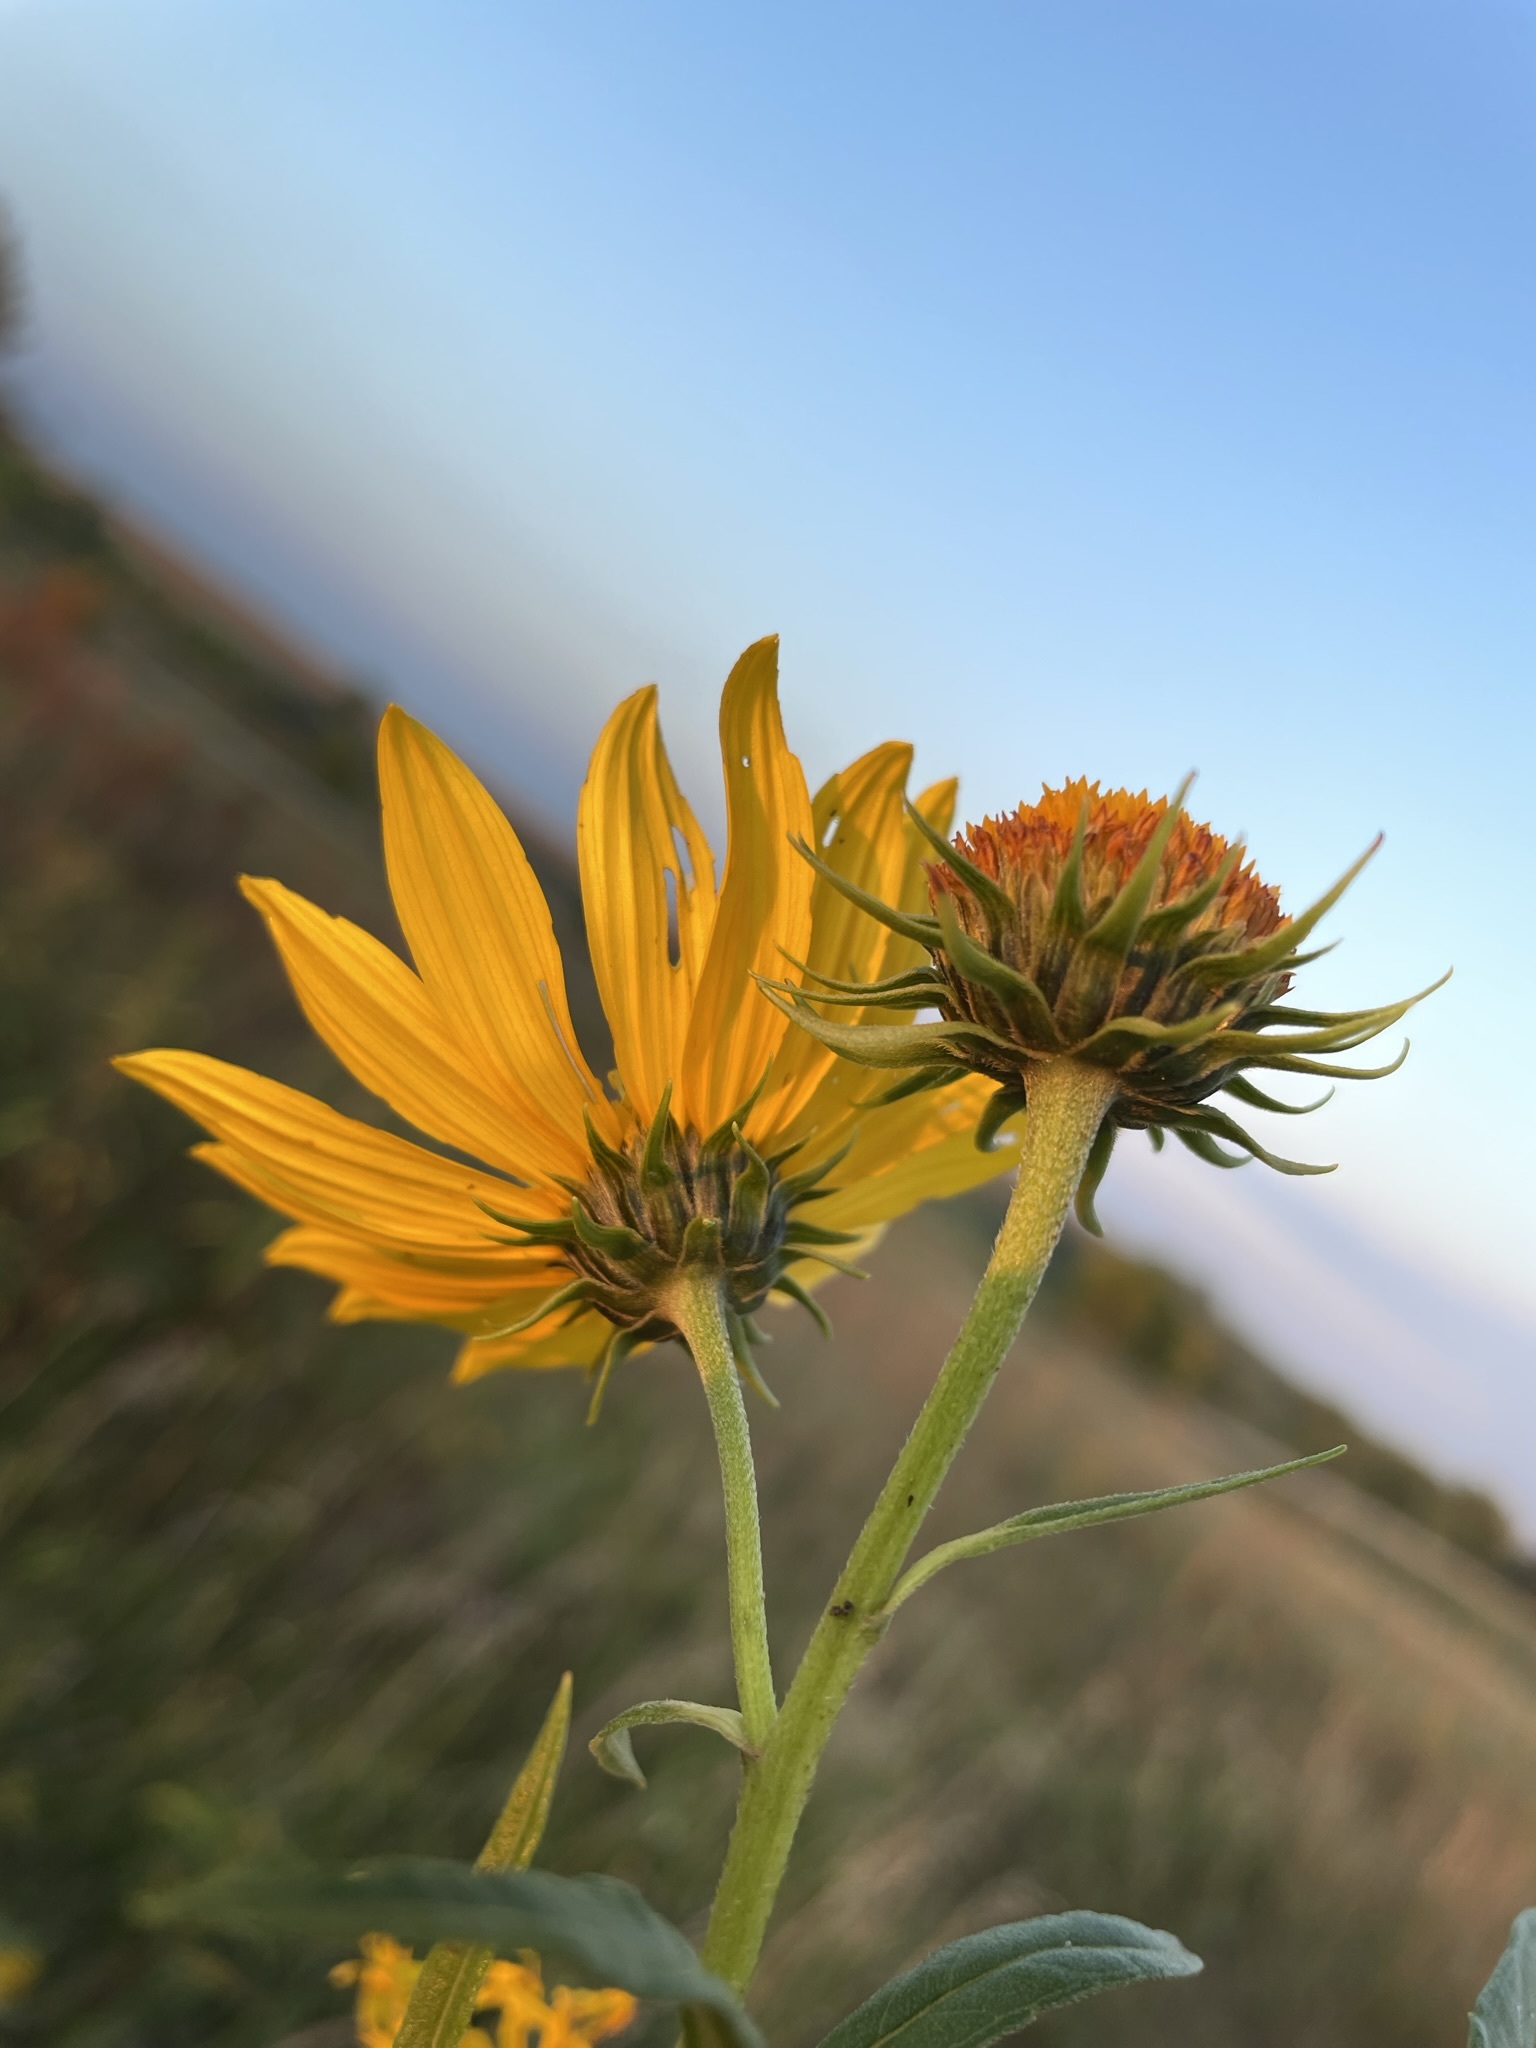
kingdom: Plantae
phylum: Tracheophyta
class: Magnoliopsida
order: Asterales
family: Asteraceae
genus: Helianthus
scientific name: Helianthus grosseserratus
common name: Sawtooth sunflower
